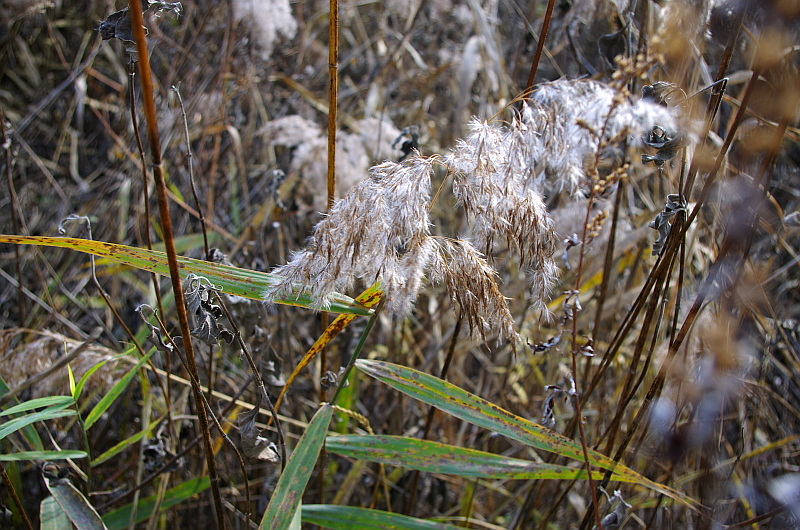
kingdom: Plantae
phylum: Tracheophyta
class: Liliopsida
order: Poales
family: Poaceae
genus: Phragmites
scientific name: Phragmites australis
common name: Common reed
